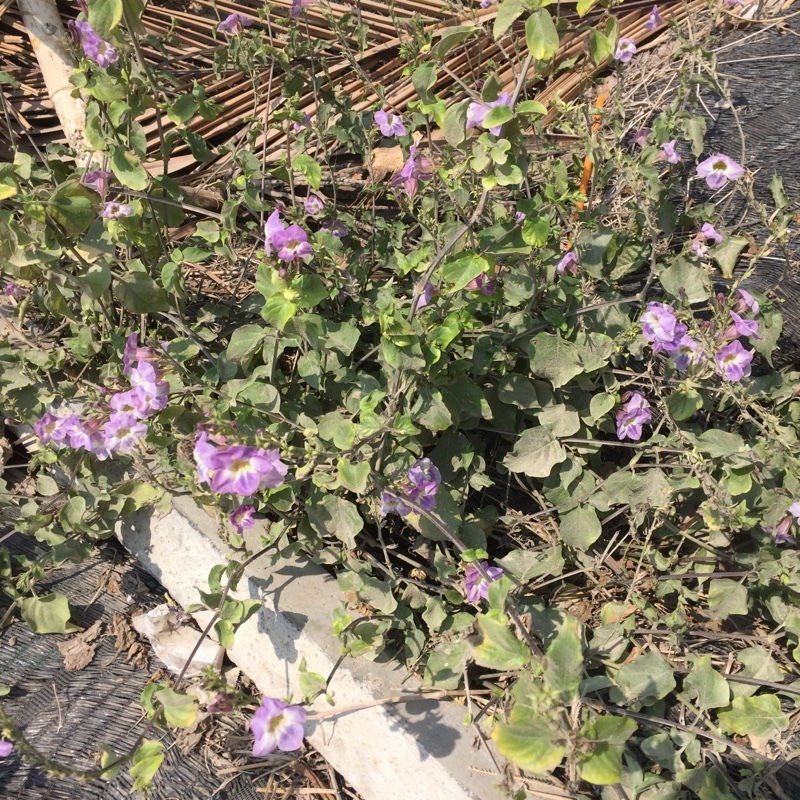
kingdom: Plantae
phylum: Tracheophyta
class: Magnoliopsida
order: Lamiales
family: Acanthaceae
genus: Asystasia
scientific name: Asystasia gangetica
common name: Chinese violet
